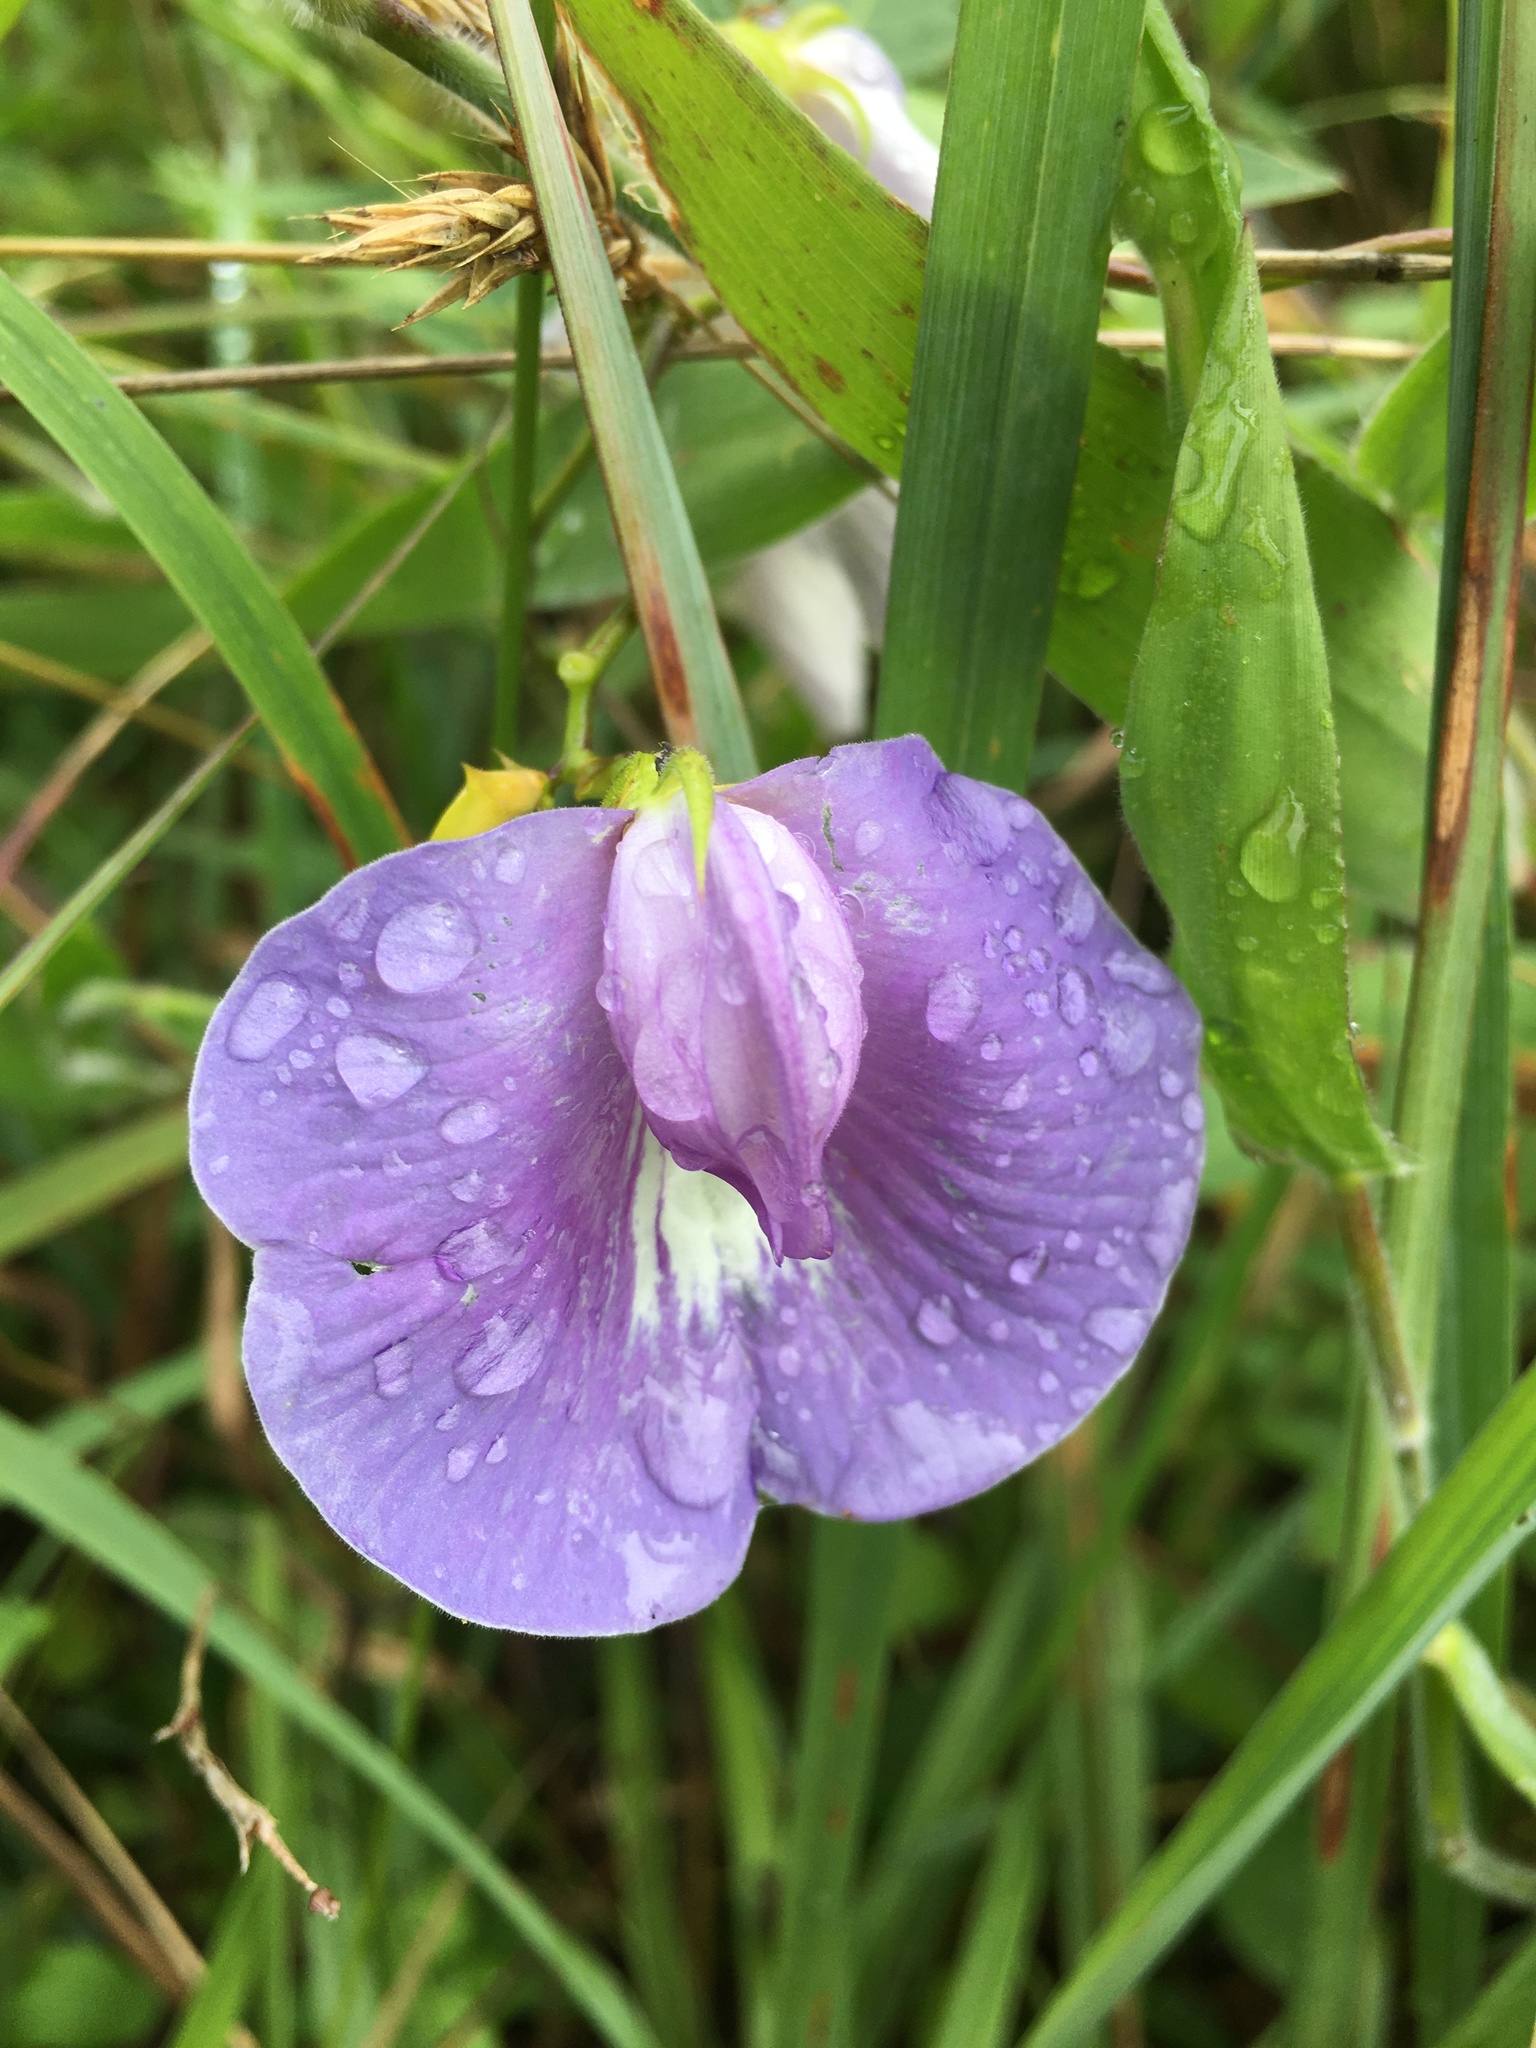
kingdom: Plantae
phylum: Tracheophyta
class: Magnoliopsida
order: Fabales
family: Fabaceae
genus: Centrosema
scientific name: Centrosema virginianum
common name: Butterfly-pea
